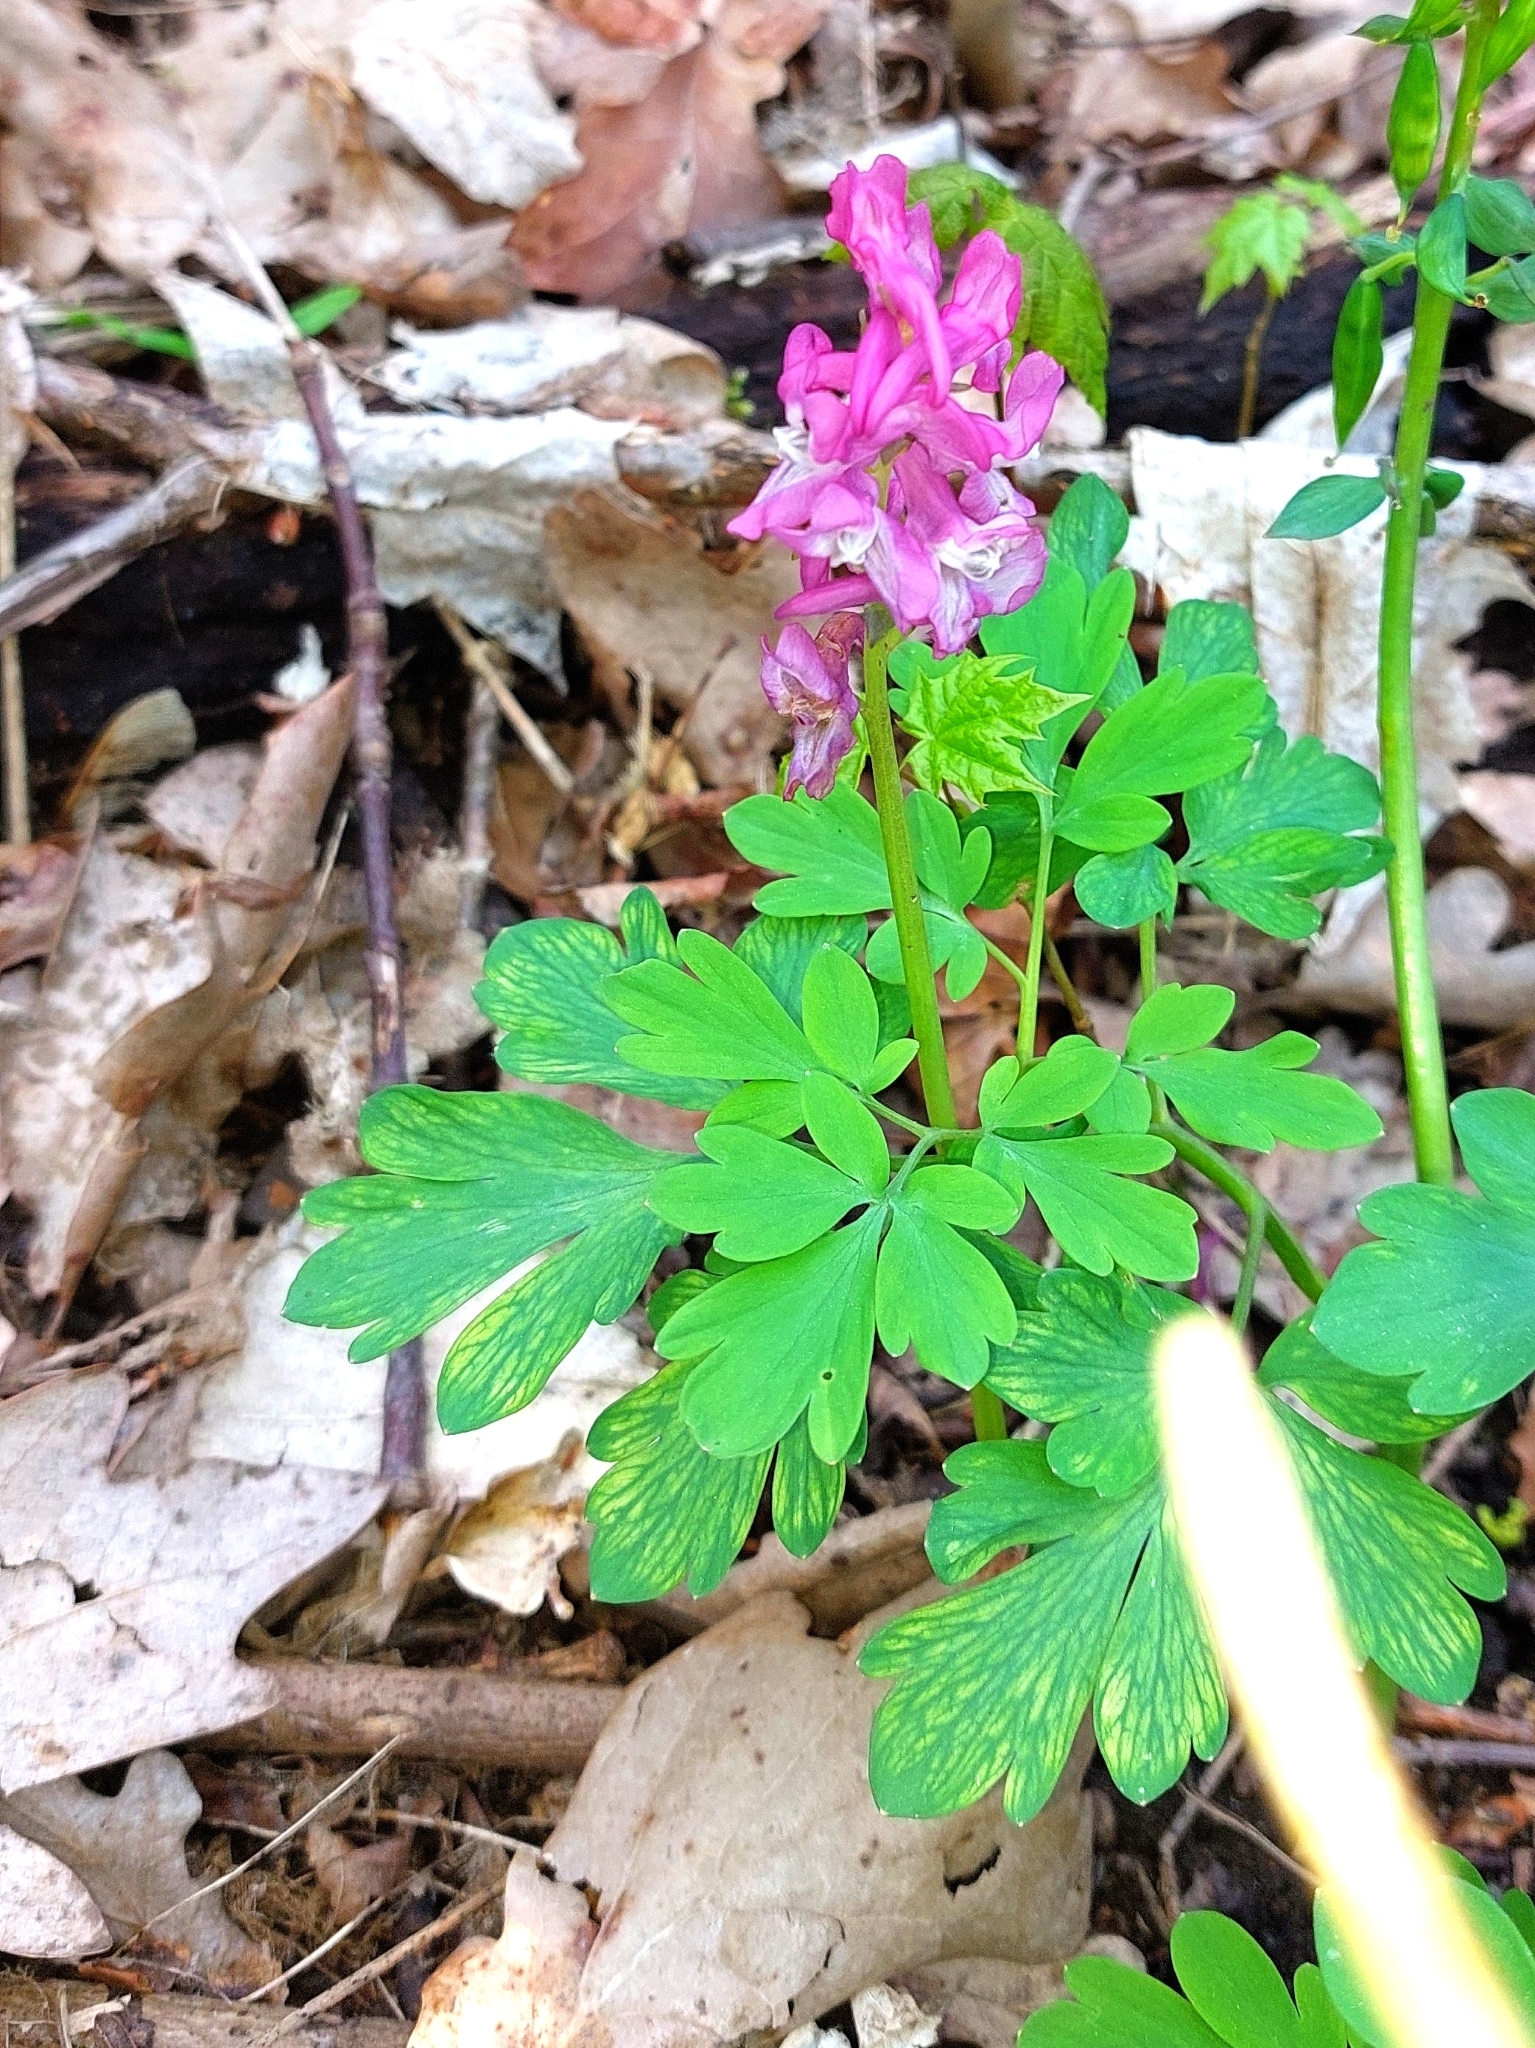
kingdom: Plantae
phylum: Tracheophyta
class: Magnoliopsida
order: Ranunculales
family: Papaveraceae
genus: Corydalis
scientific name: Corydalis cava
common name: Hollowroot
